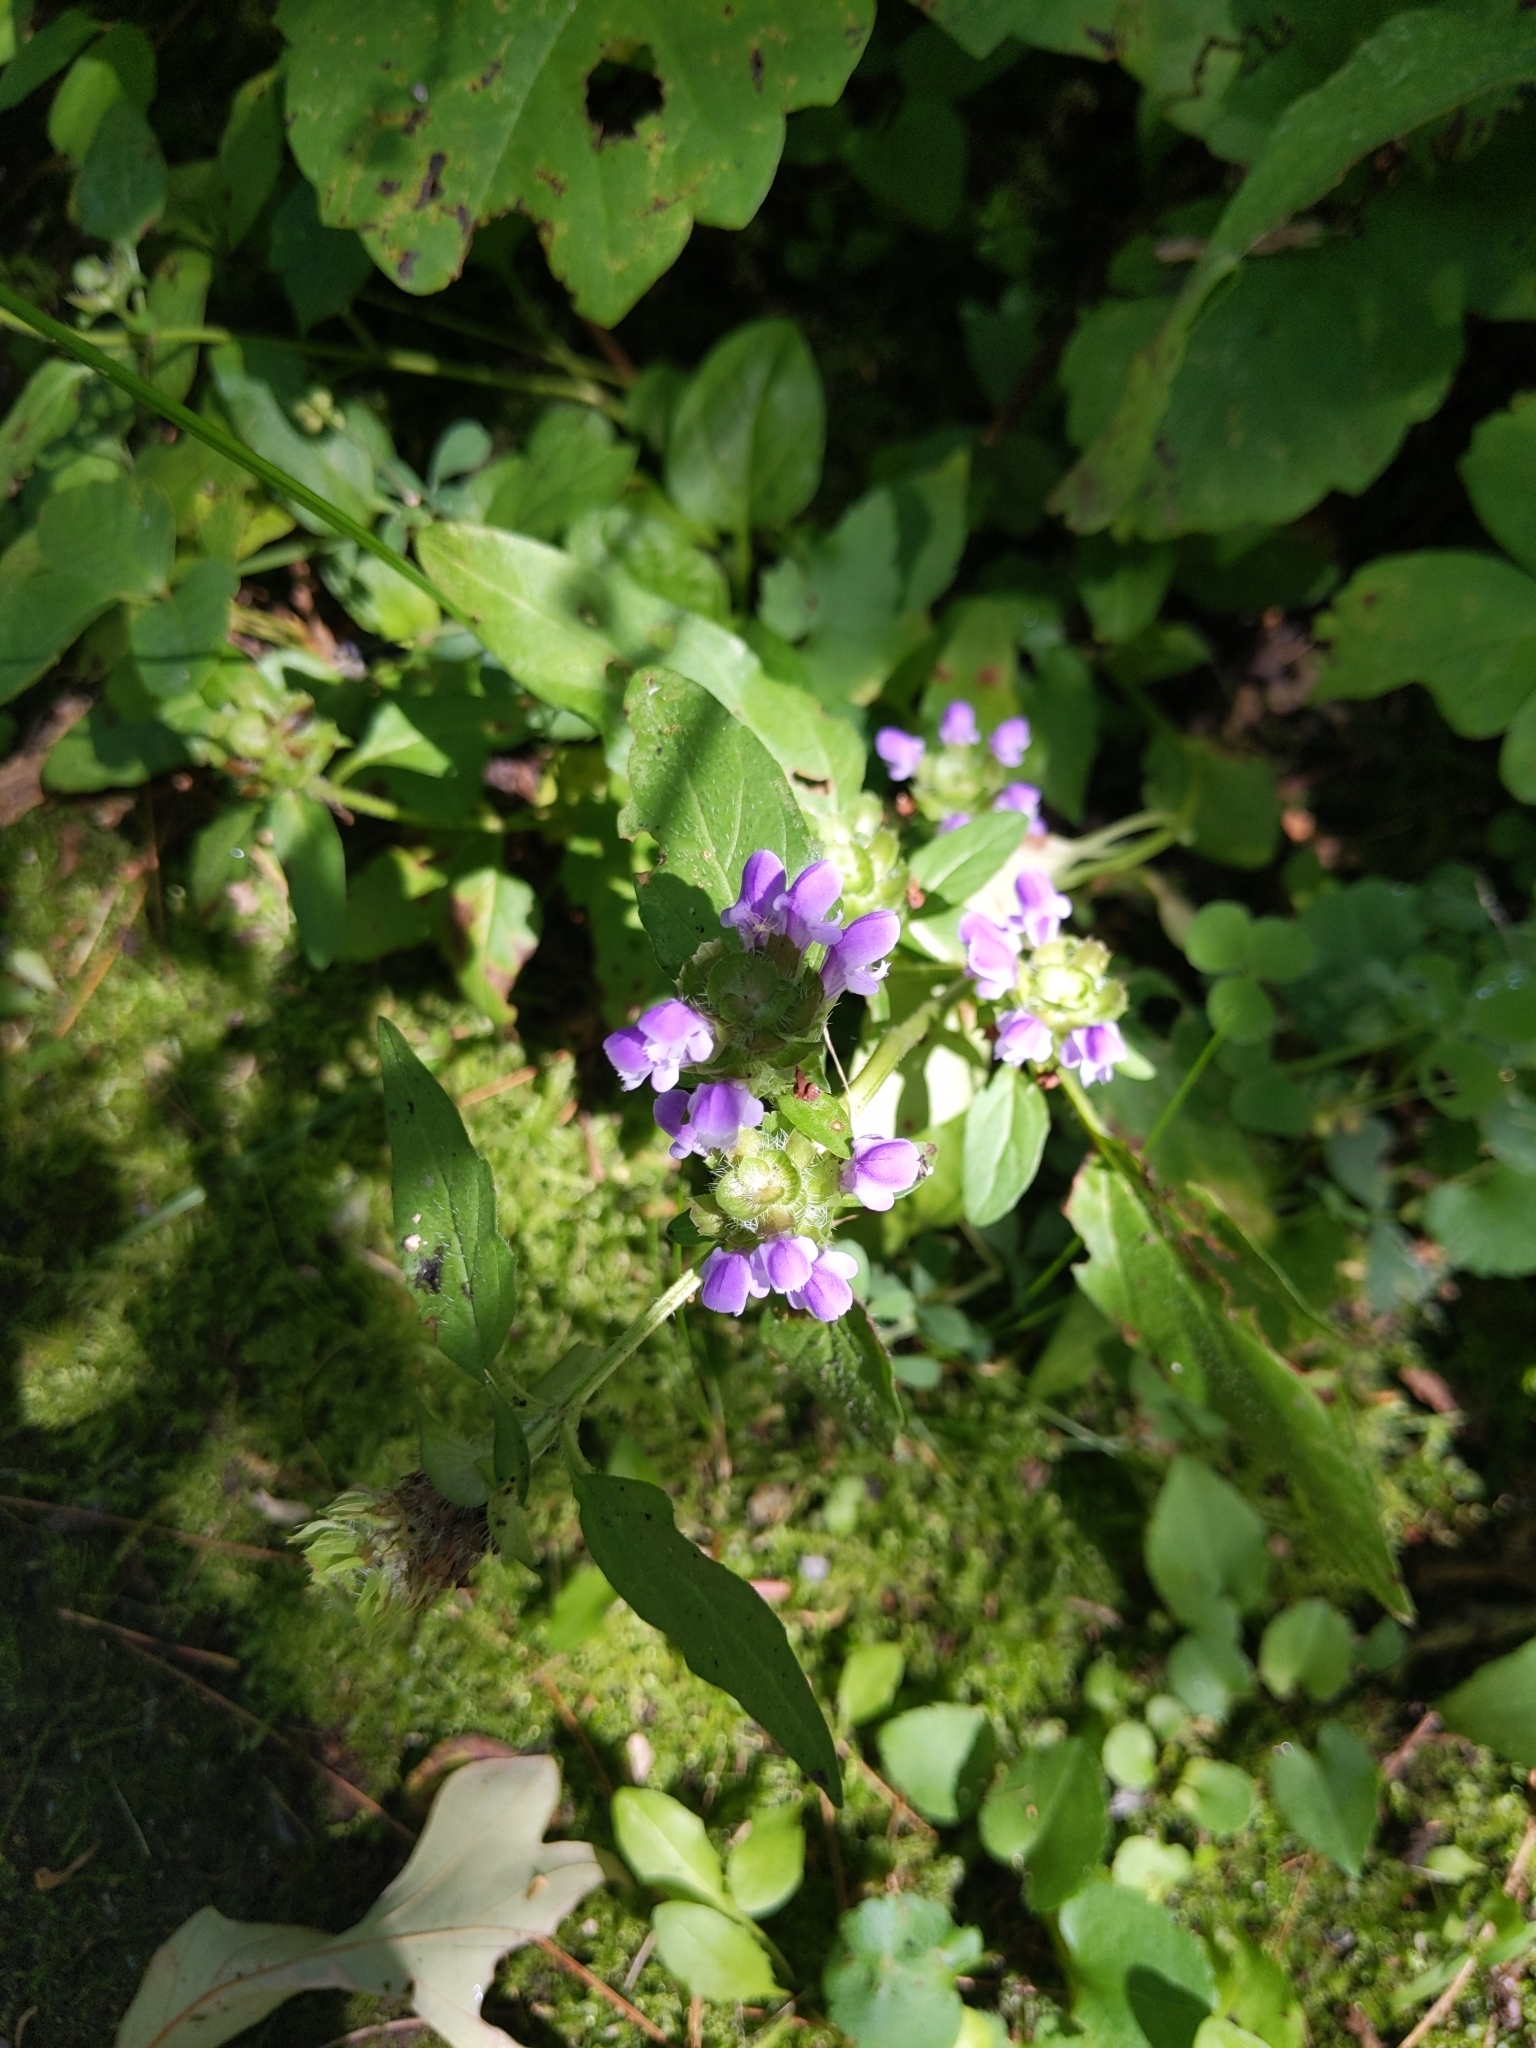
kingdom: Plantae
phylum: Tracheophyta
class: Magnoliopsida
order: Lamiales
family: Lamiaceae
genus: Prunella
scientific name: Prunella vulgaris
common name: Heal-all
